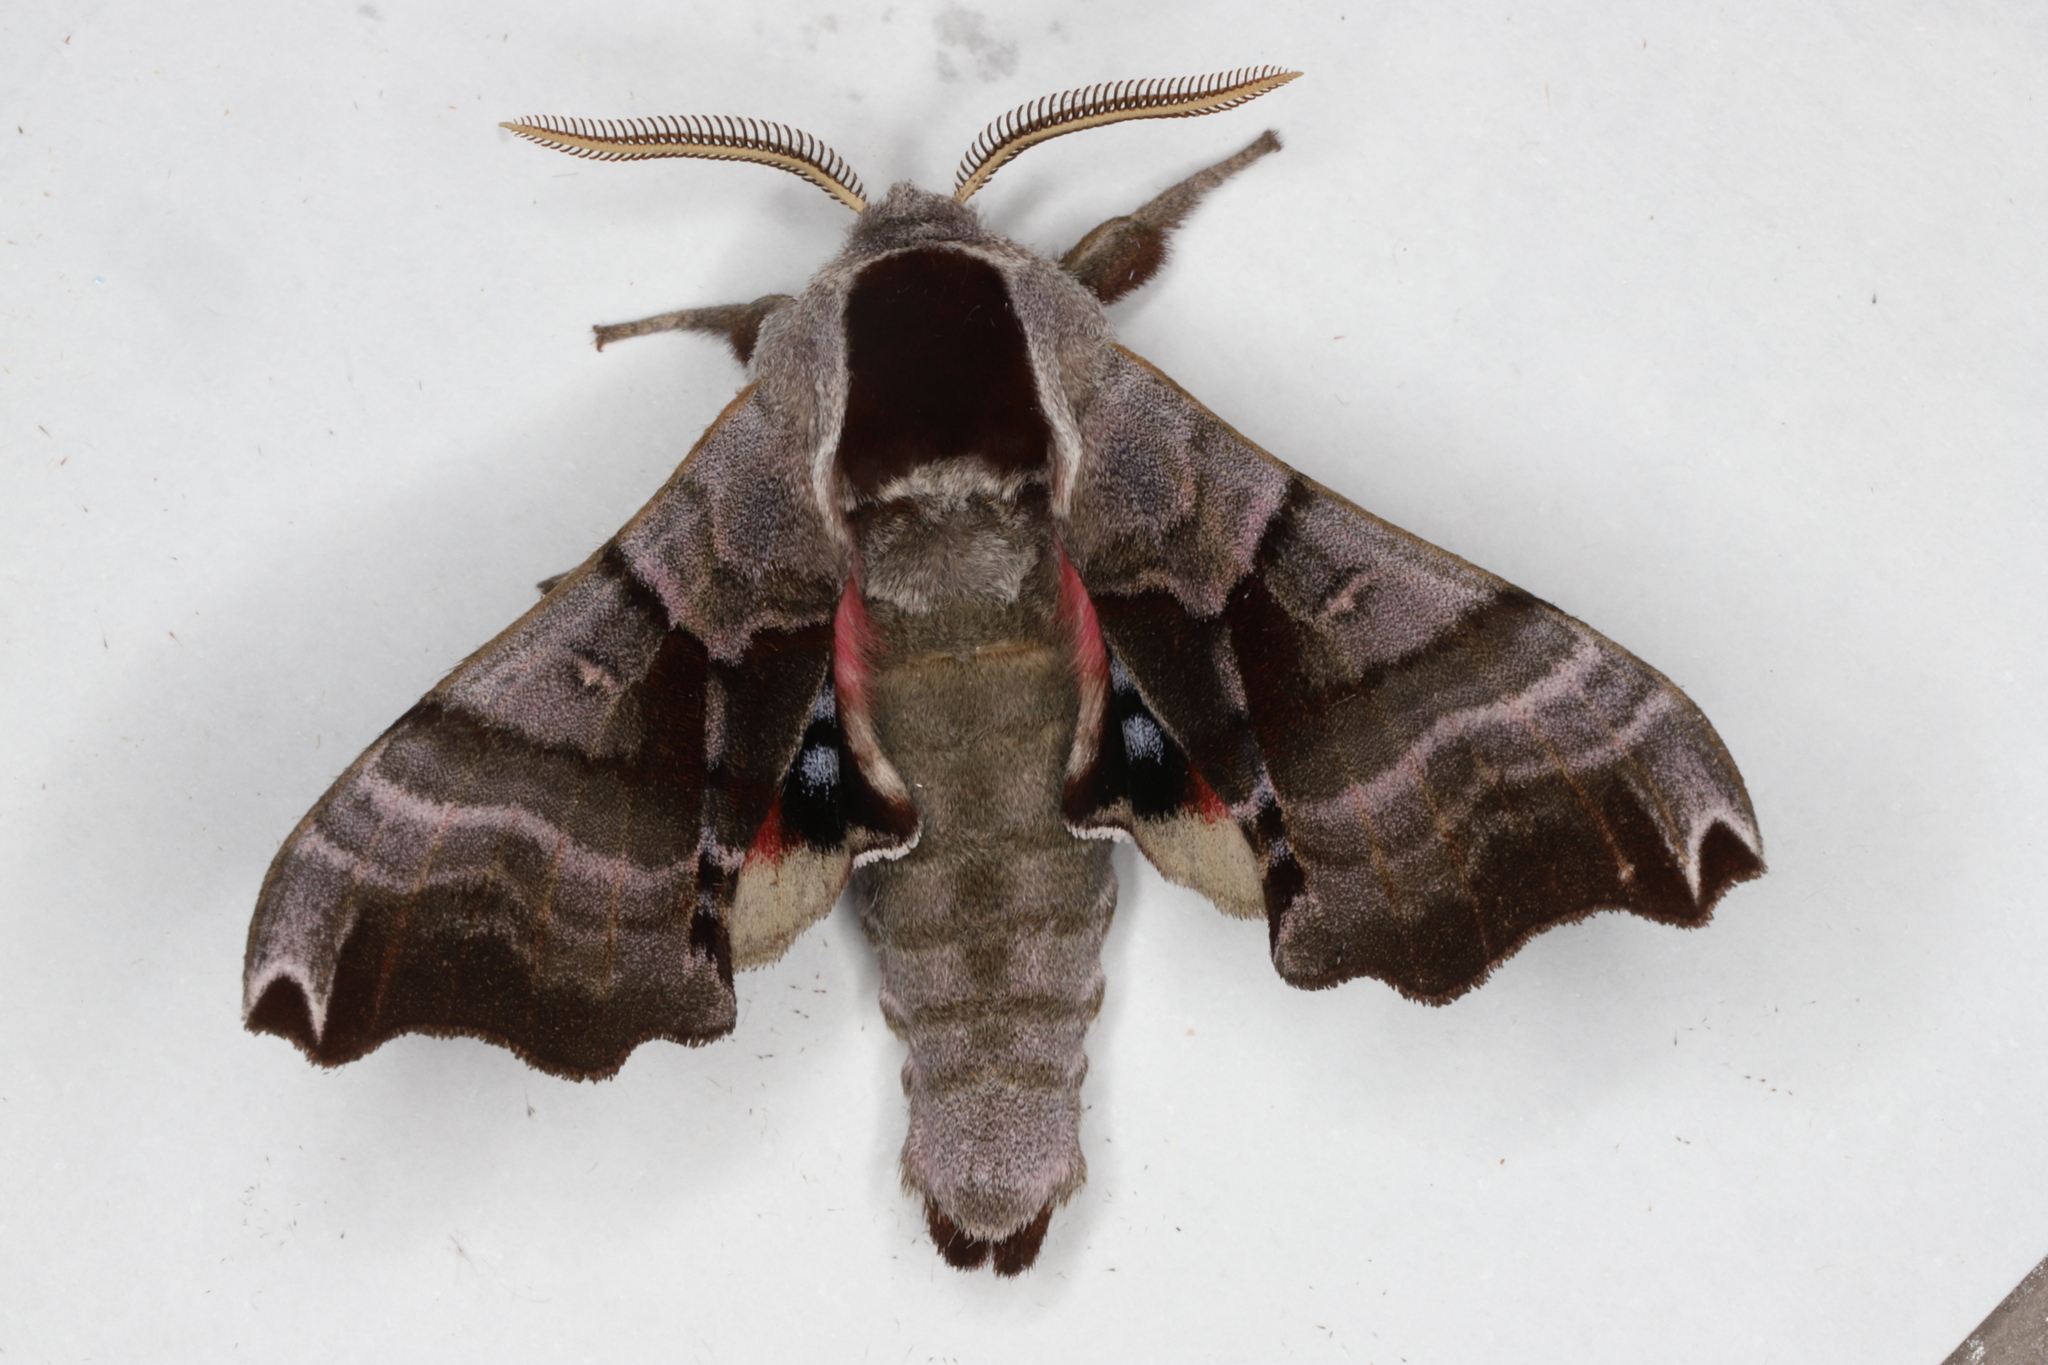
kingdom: Animalia
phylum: Arthropoda
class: Insecta
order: Lepidoptera
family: Sphingidae
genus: Smerinthus
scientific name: Smerinthus jamaicensis
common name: Twin spotted sphinx
